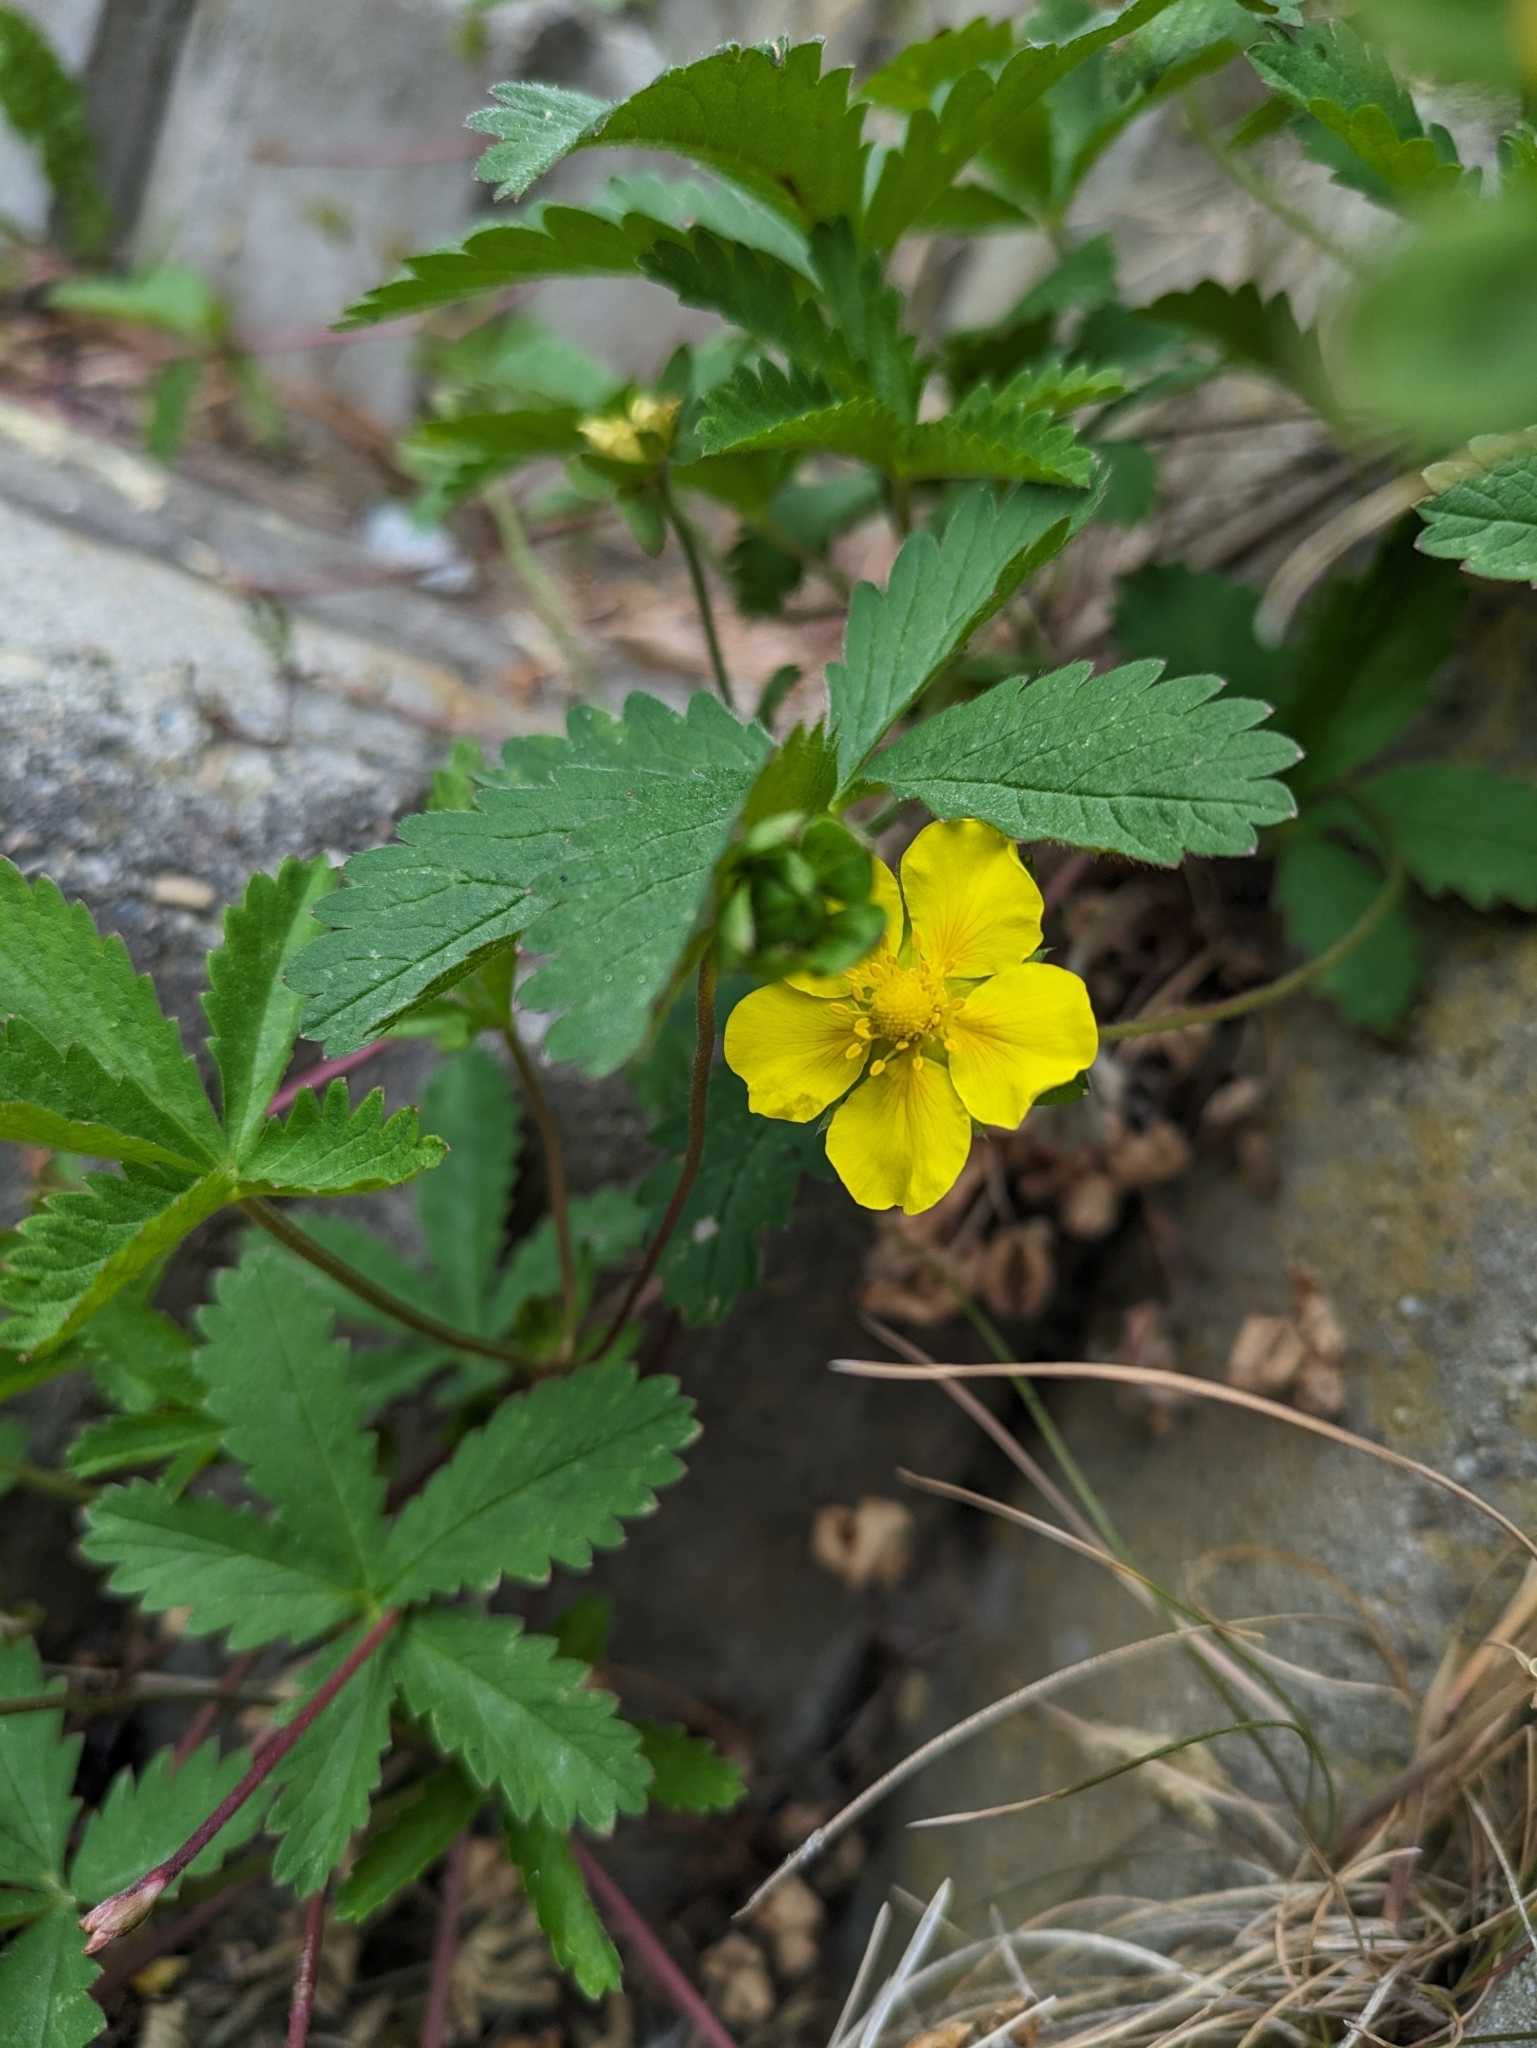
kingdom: Plantae
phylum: Tracheophyta
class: Magnoliopsida
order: Rosales
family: Rosaceae
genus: Potentilla
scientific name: Potentilla reptans
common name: Creeping cinquefoil
